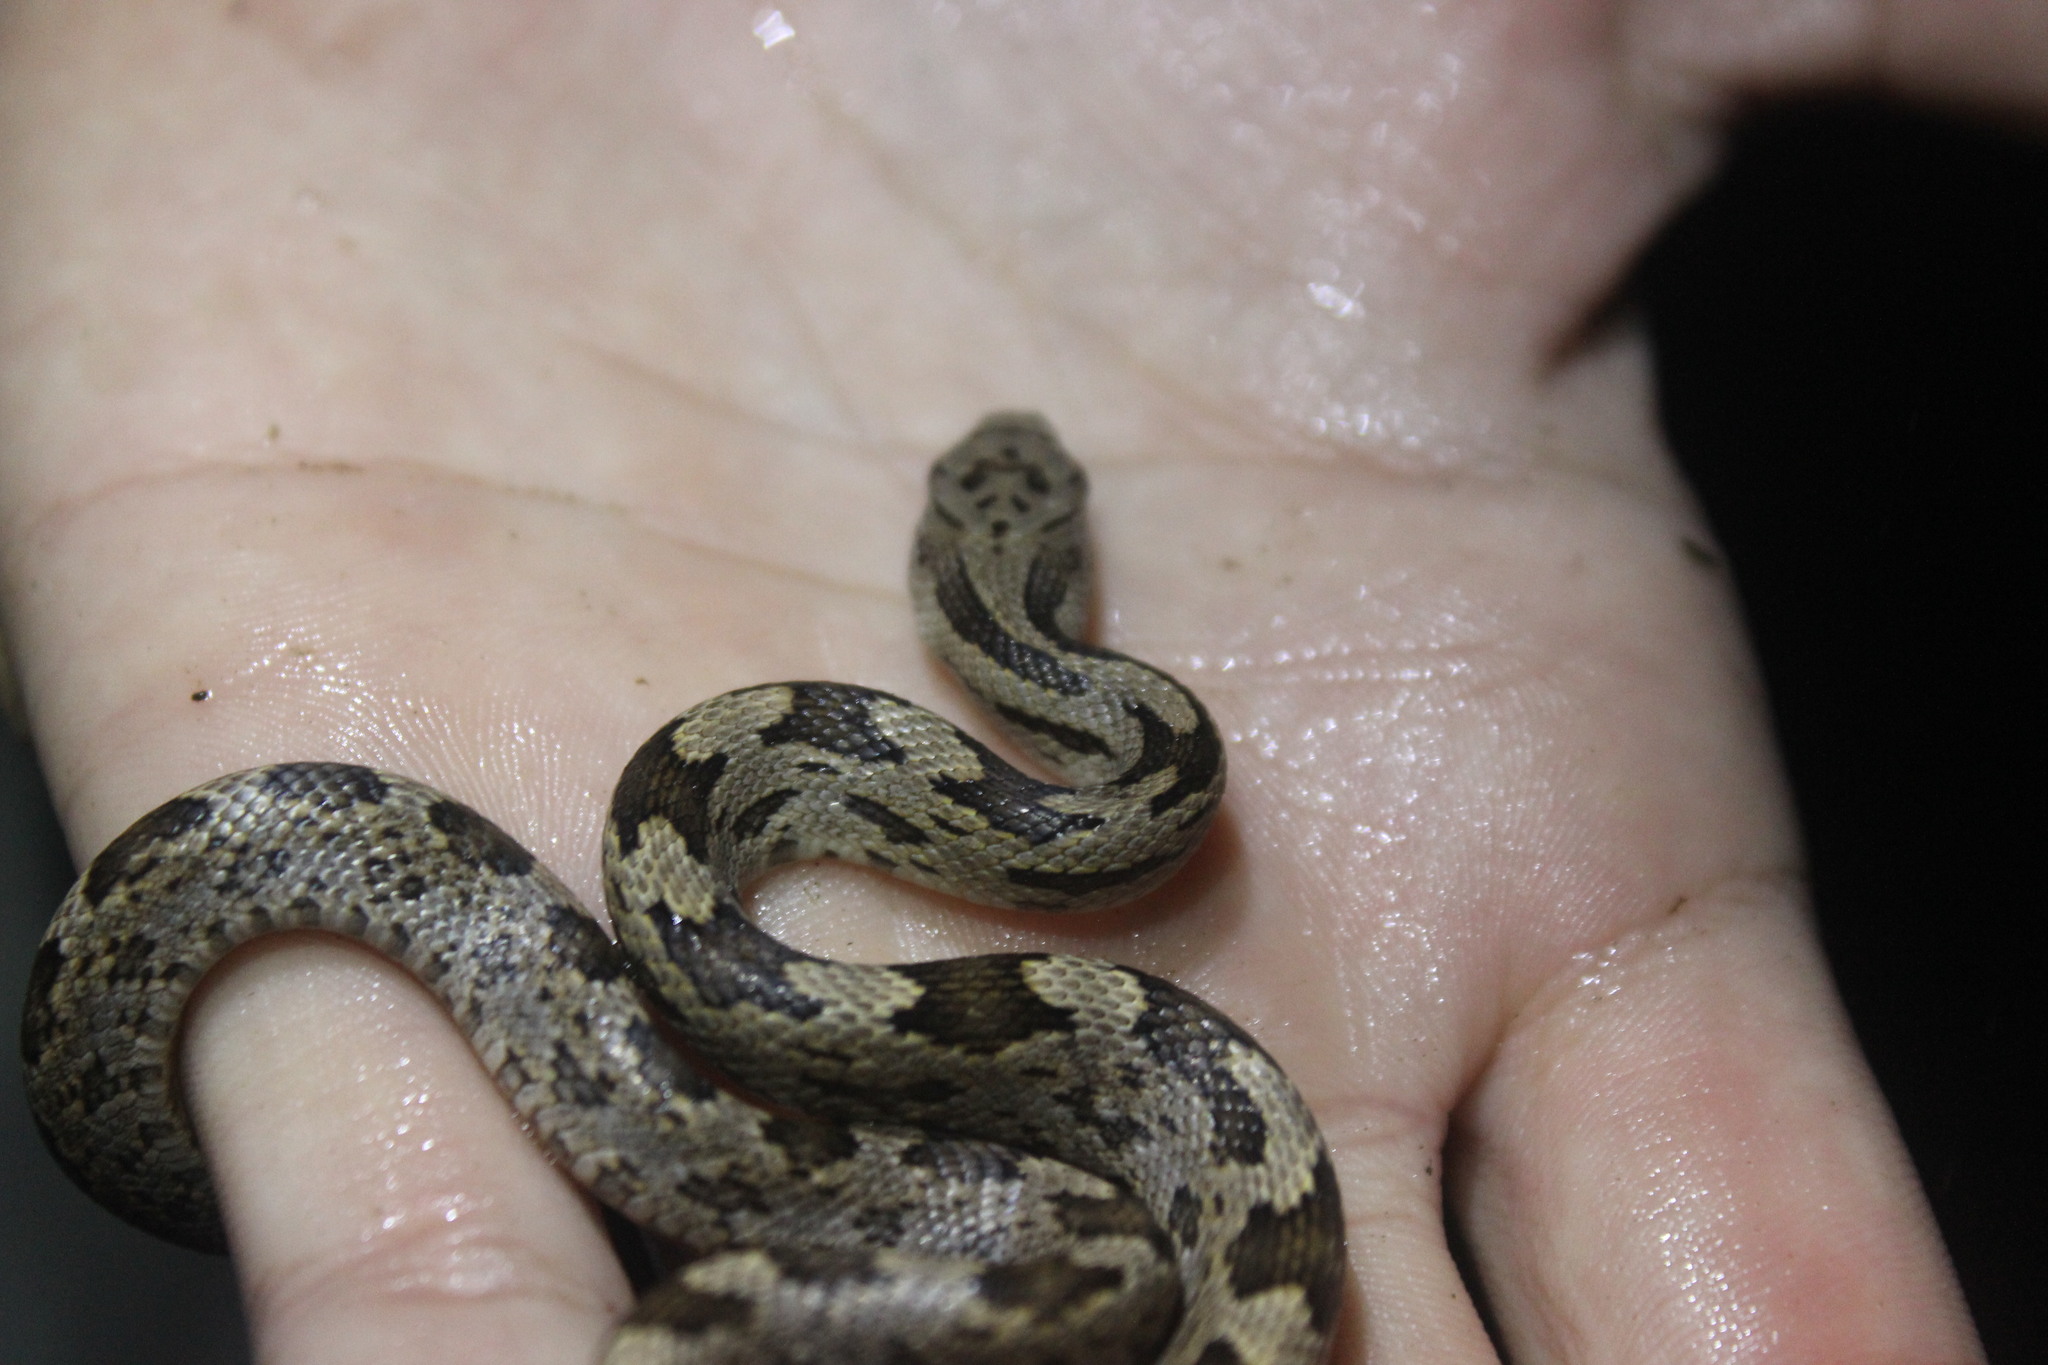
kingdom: Animalia
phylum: Chordata
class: Squamata
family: Colubridae
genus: Pantherophis
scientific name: Pantherophis alleghaniensis
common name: Eastern rat snake
